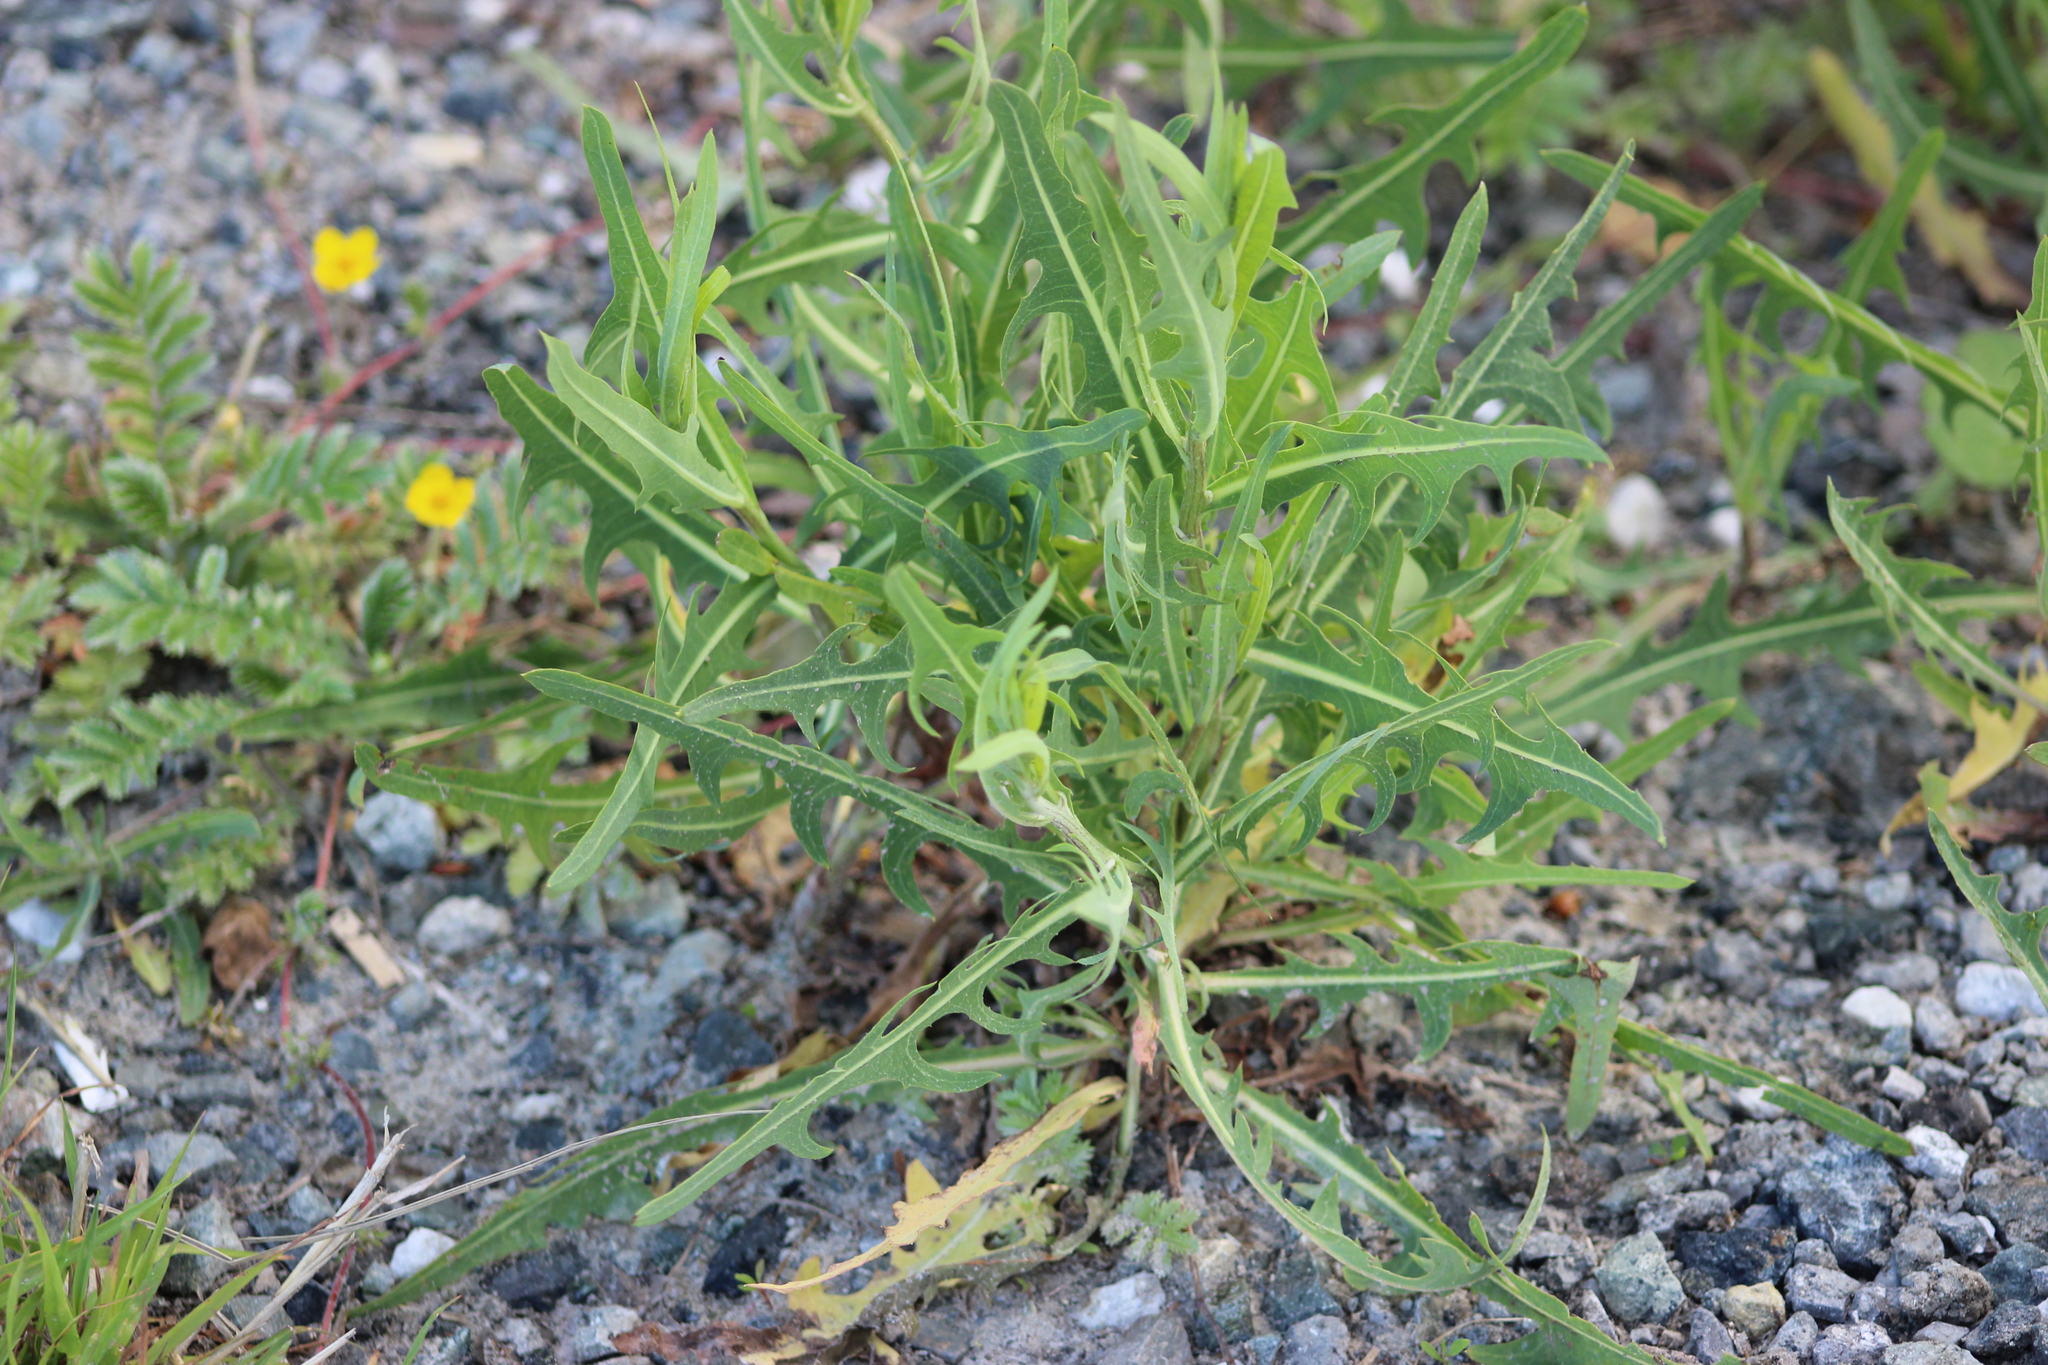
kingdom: Plantae
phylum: Tracheophyta
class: Magnoliopsida
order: Asterales
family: Asteraceae
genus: Lactuca
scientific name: Lactuca tatarica
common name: Blue lettuce
